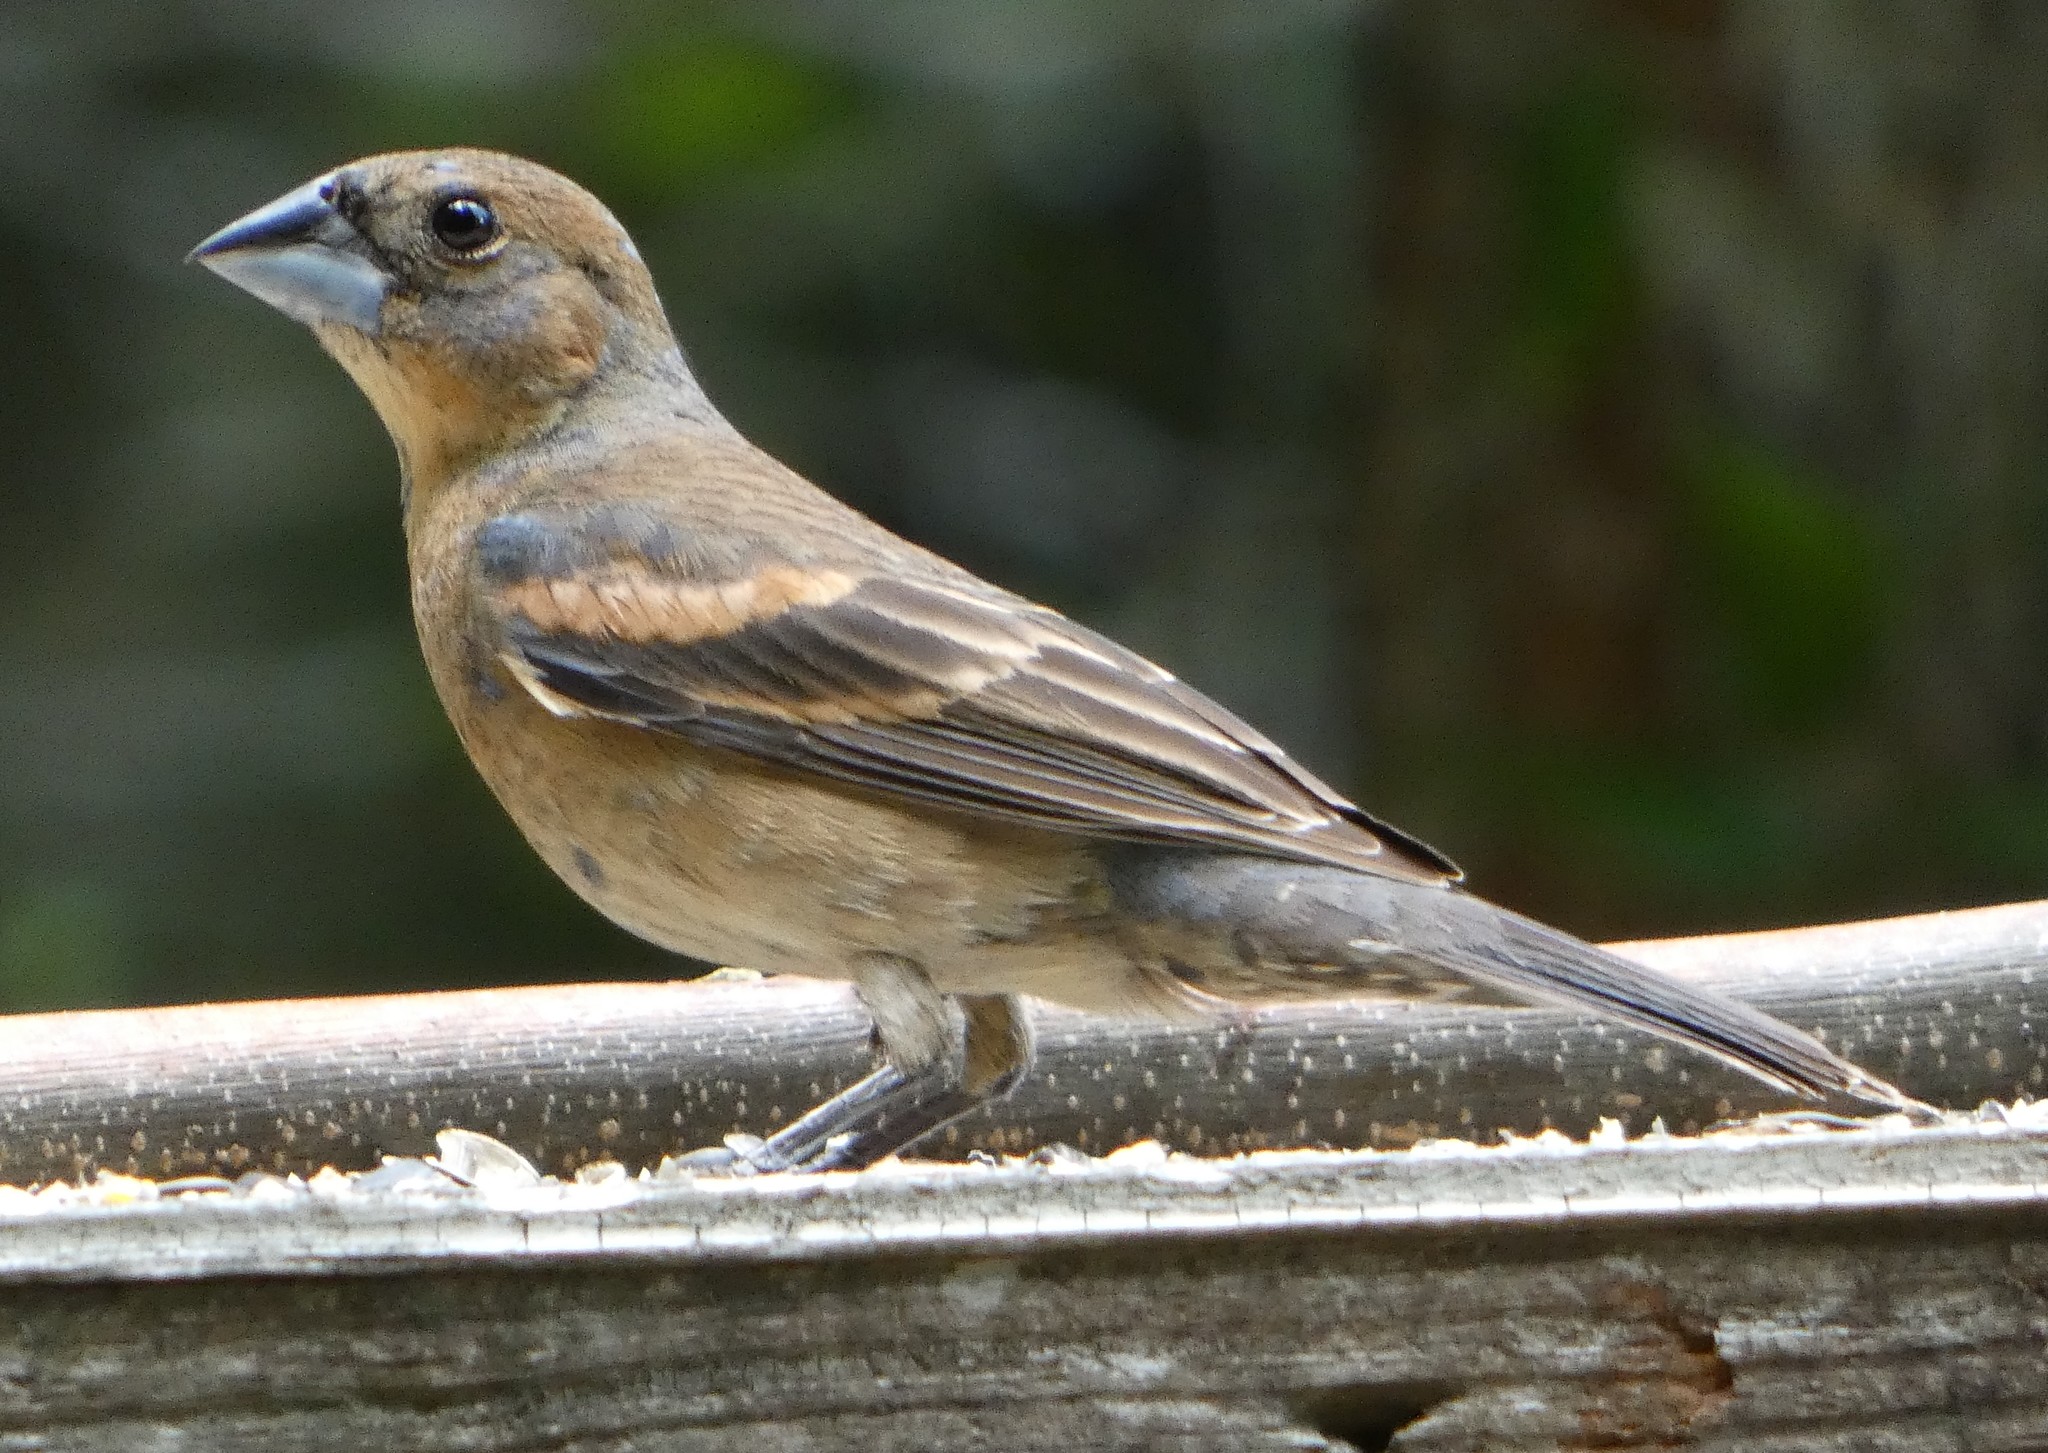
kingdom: Animalia
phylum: Chordata
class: Aves
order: Passeriformes
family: Cardinalidae
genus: Passerina
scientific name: Passerina caerulea
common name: Blue grosbeak
